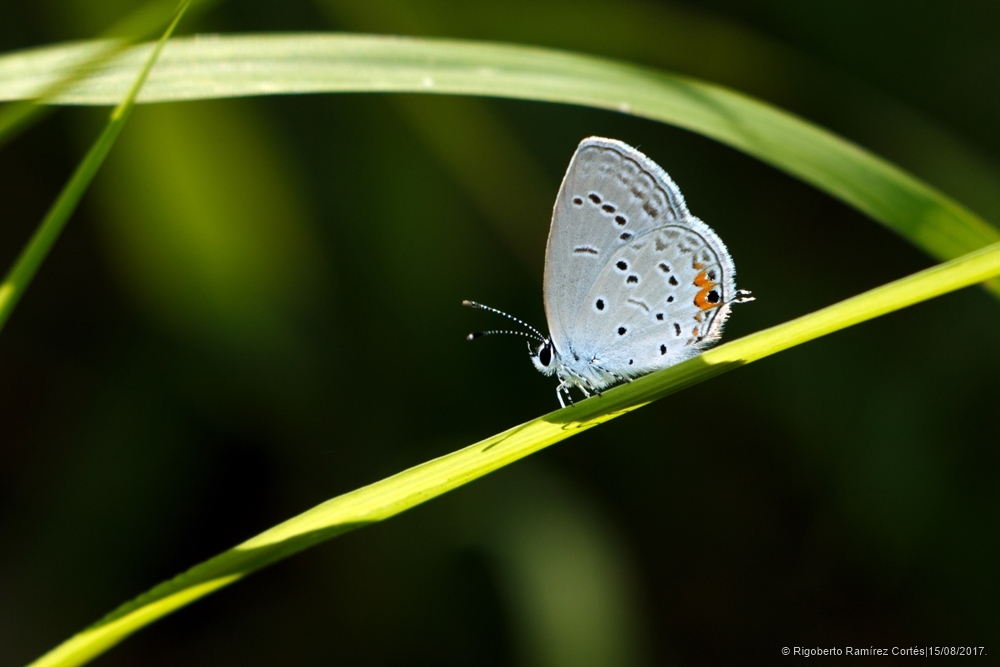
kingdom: Animalia
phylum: Arthropoda
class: Insecta
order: Lepidoptera
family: Lycaenidae
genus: Elkalyce
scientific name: Elkalyce comyntas
